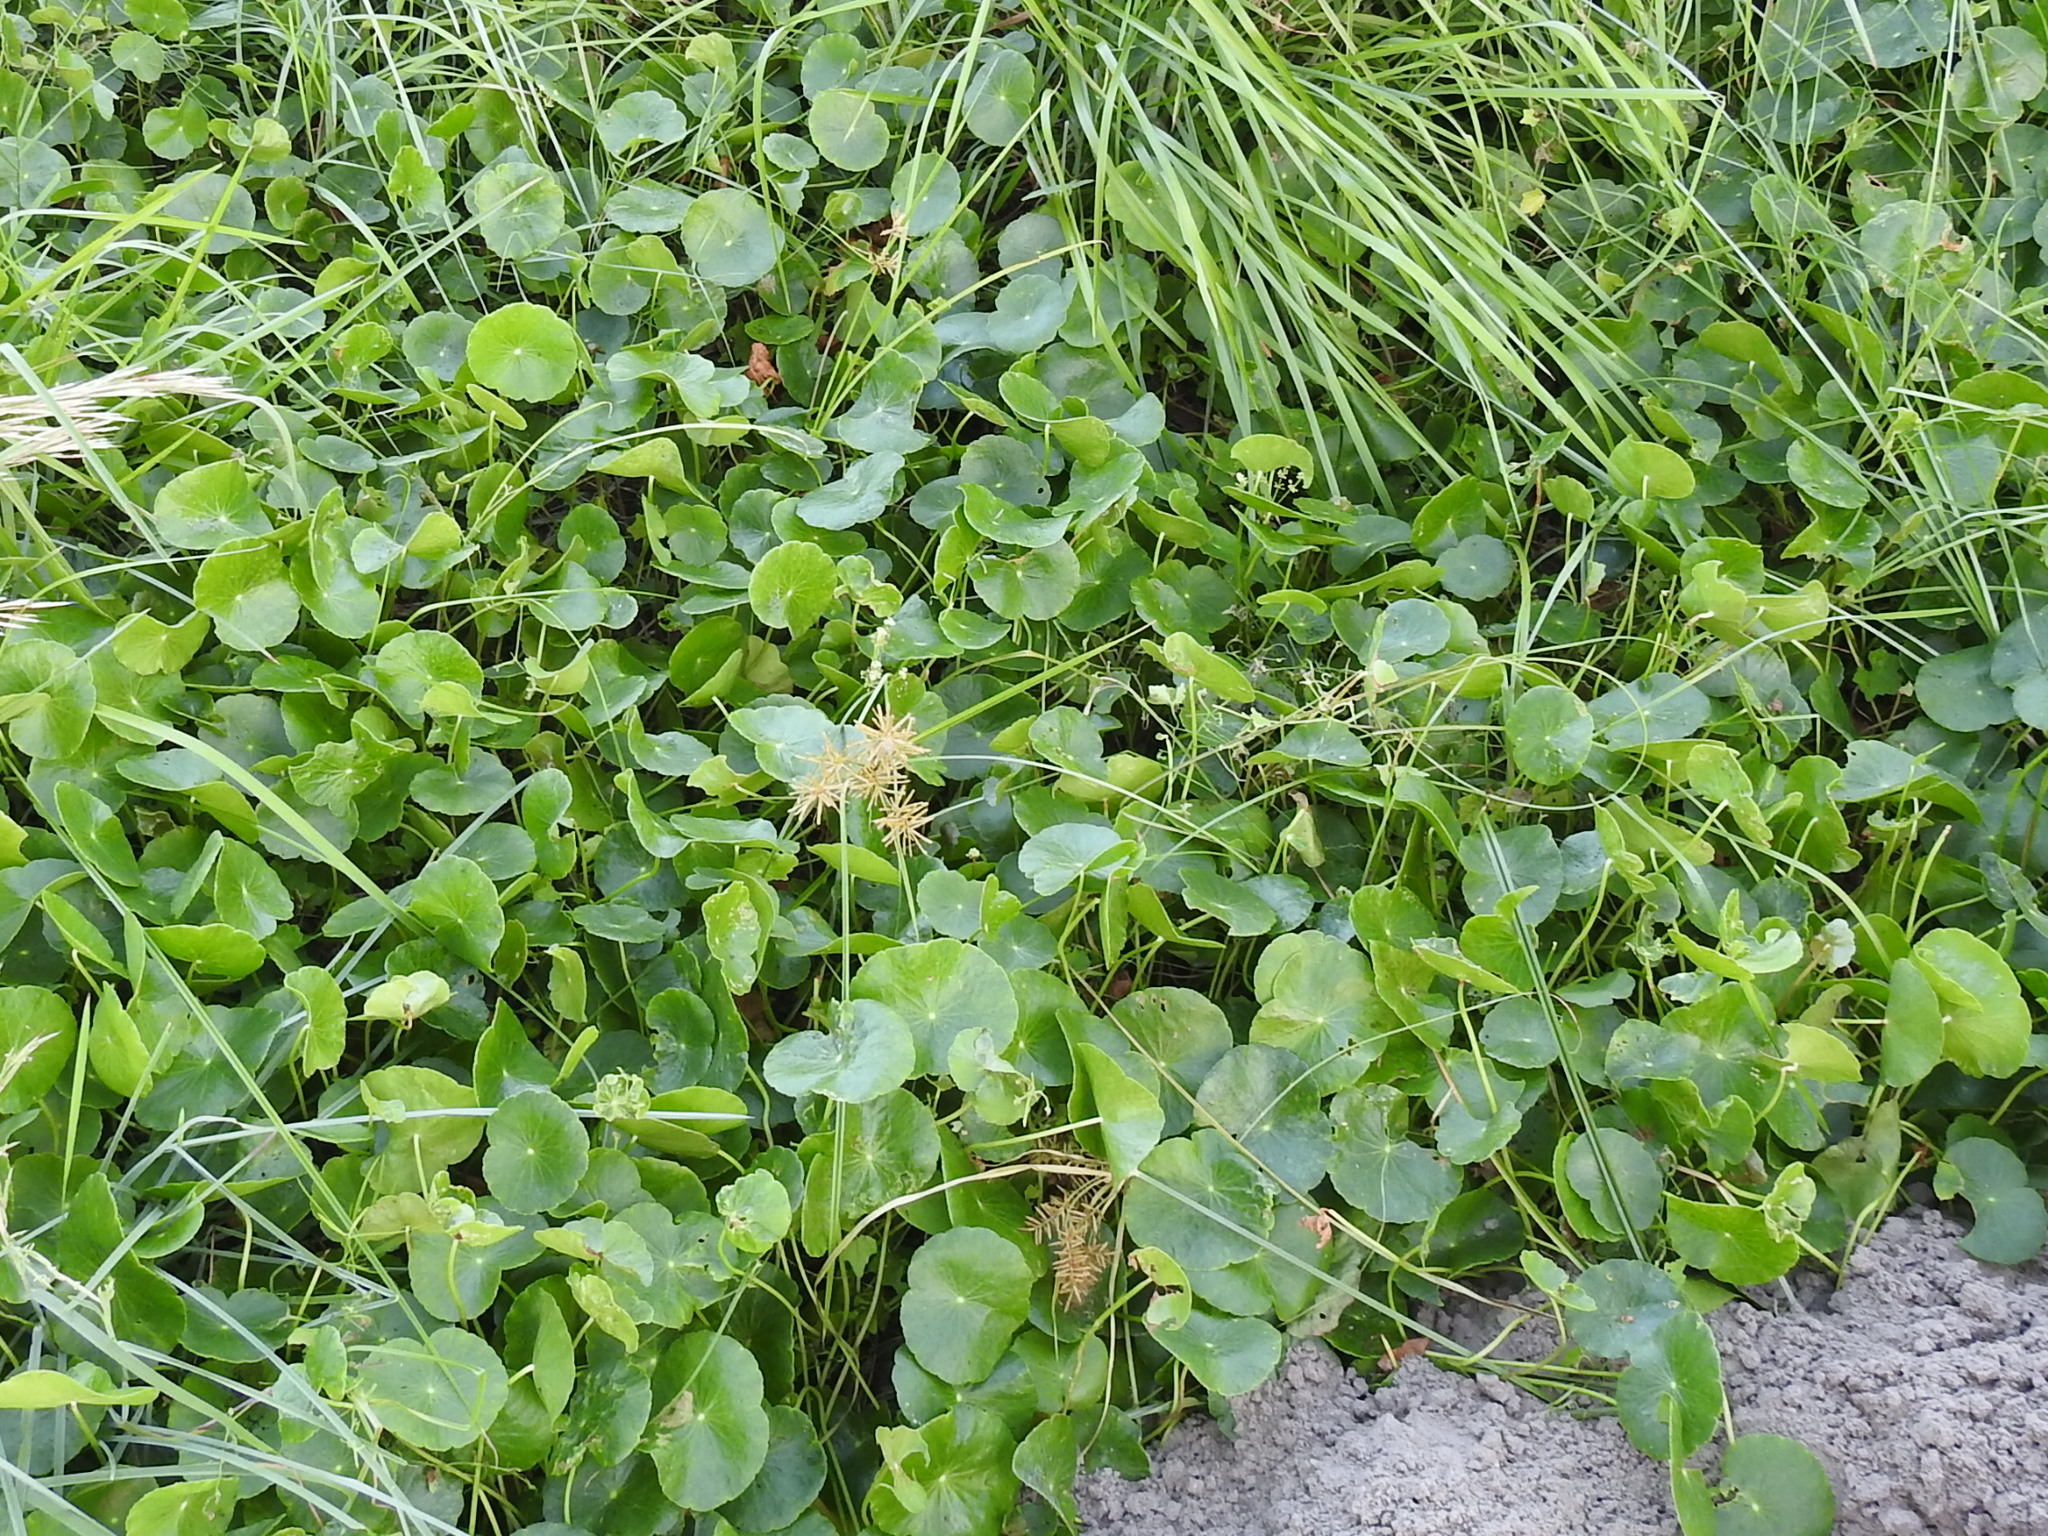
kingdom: Plantae
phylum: Tracheophyta
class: Magnoliopsida
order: Apiales
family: Araliaceae
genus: Hydrocotyle
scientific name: Hydrocotyle bonariensis
